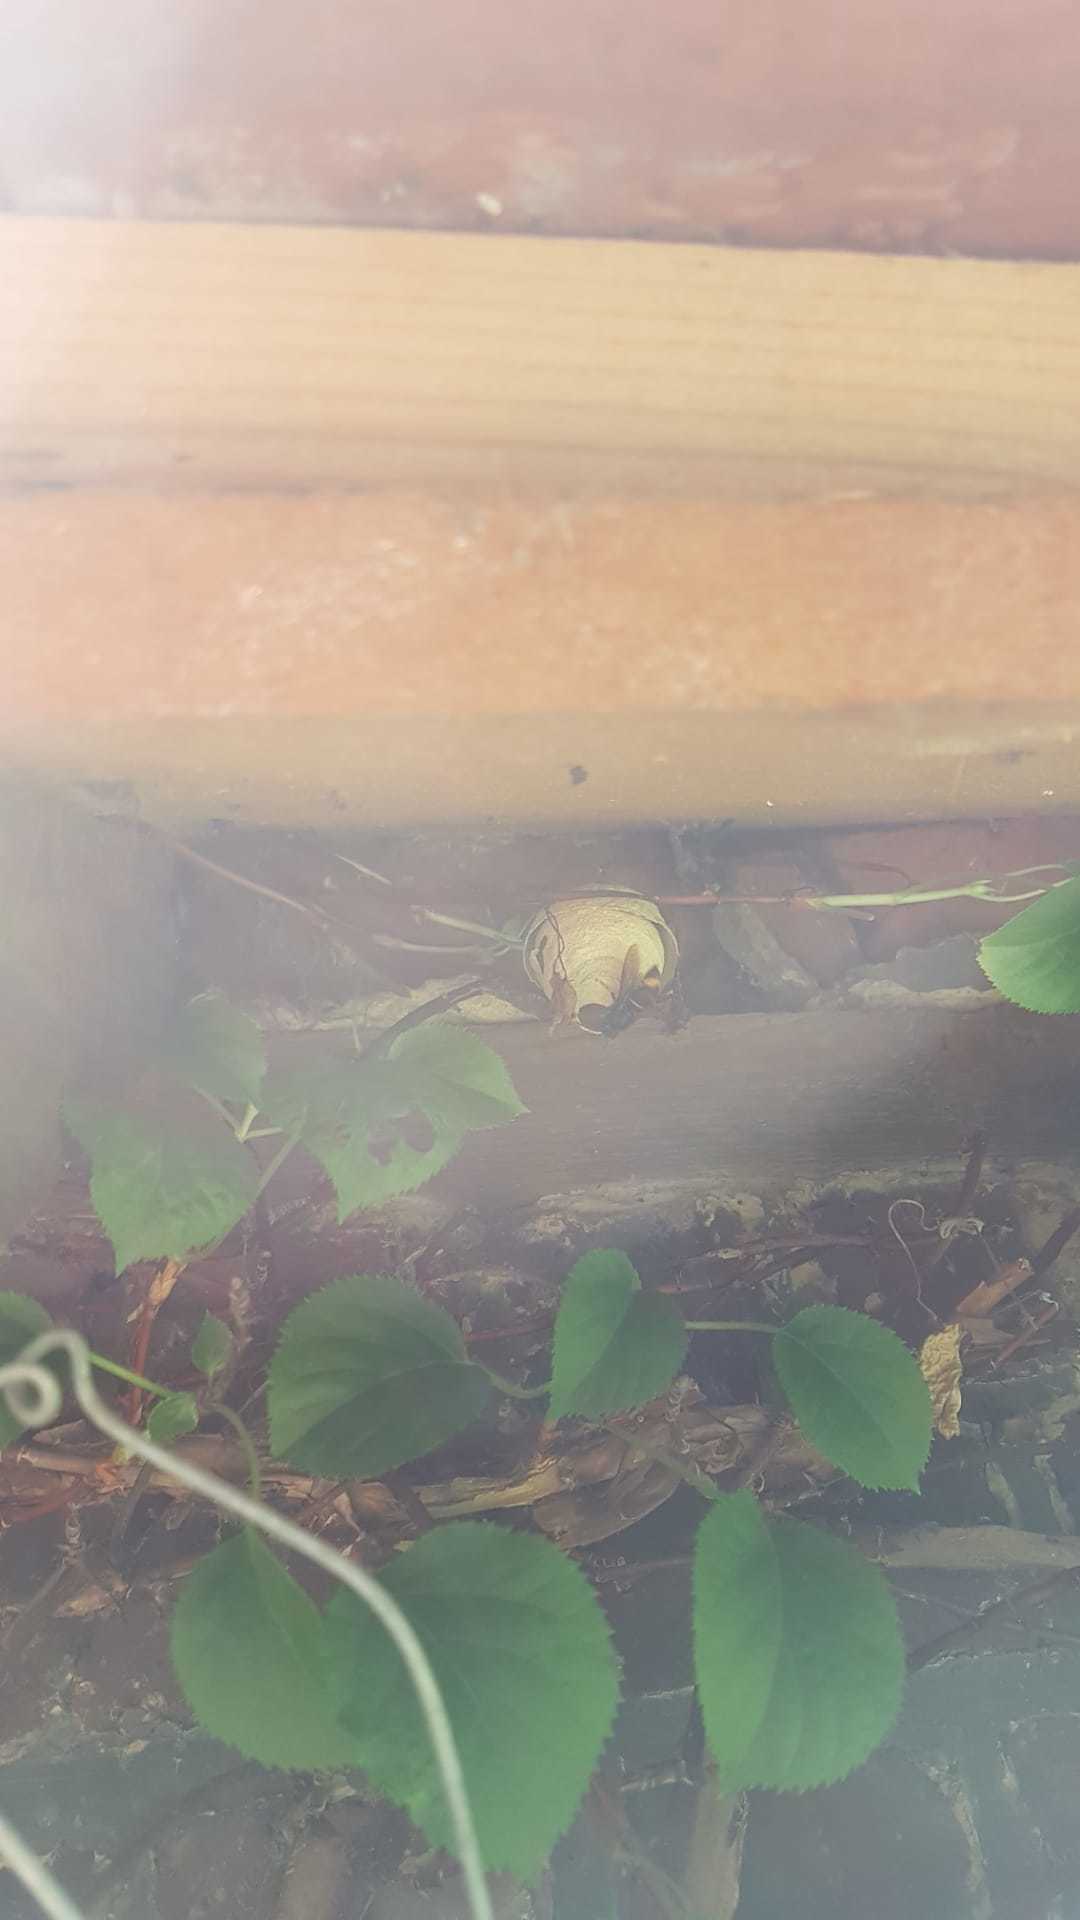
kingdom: Animalia
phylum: Arthropoda
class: Insecta
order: Hymenoptera
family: Vespidae
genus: Vespa
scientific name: Vespa velutina
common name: Asian hornet
